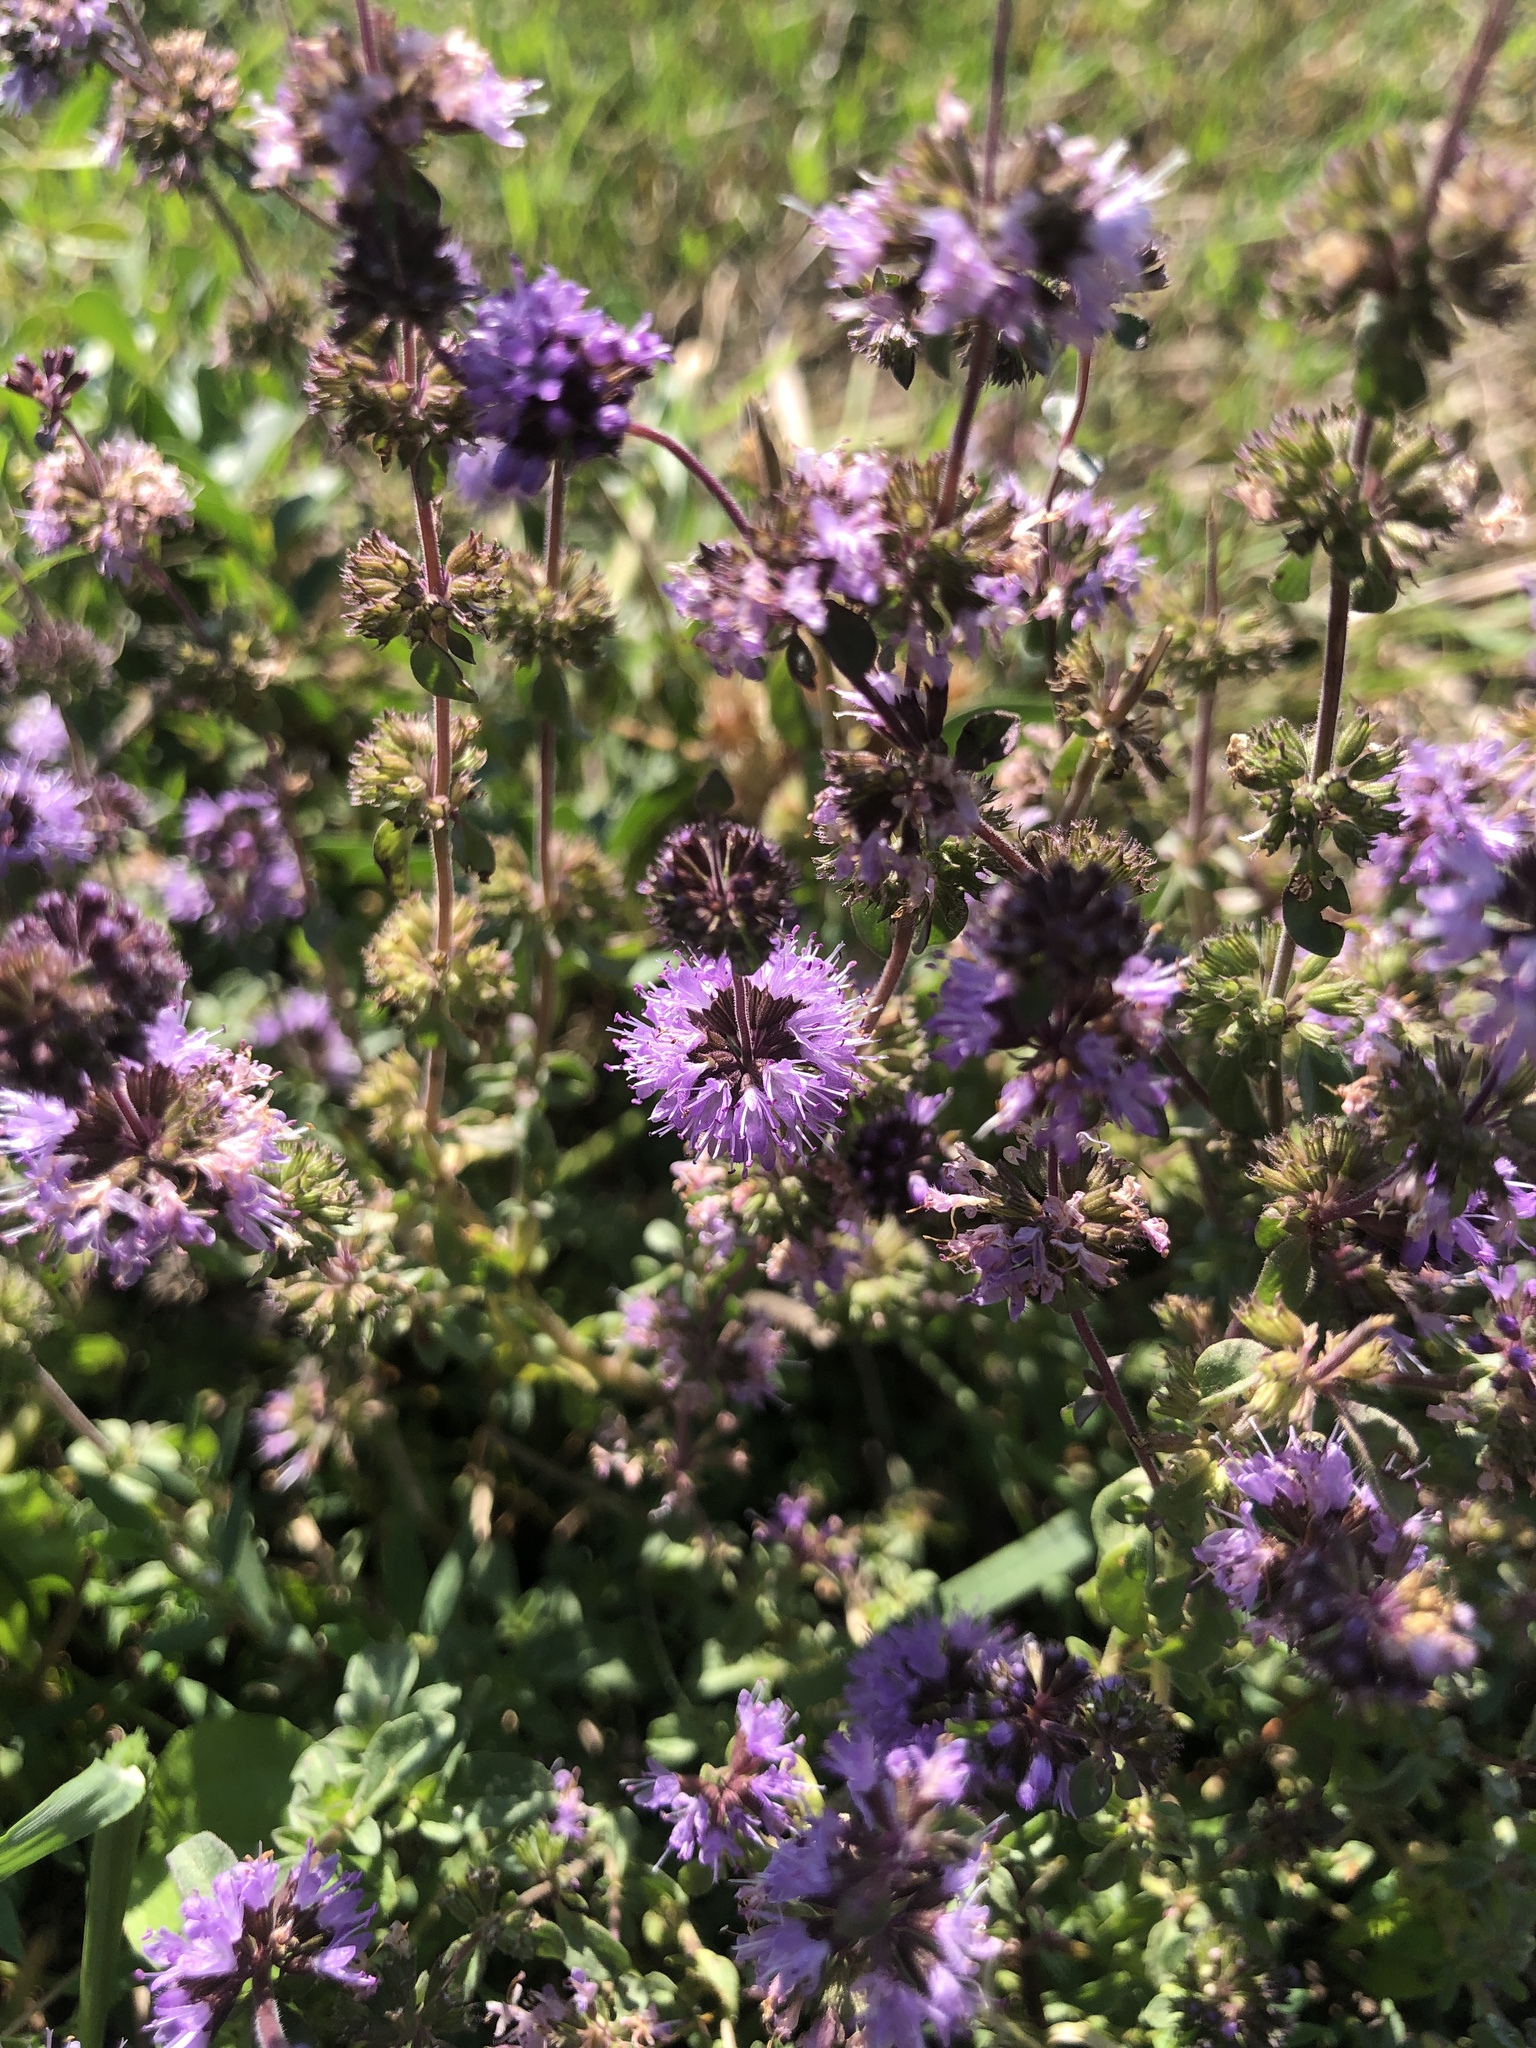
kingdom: Plantae
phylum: Tracheophyta
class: Magnoliopsida
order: Lamiales
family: Lamiaceae
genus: Mentha
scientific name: Mentha pulegium
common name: Pennyroyal
